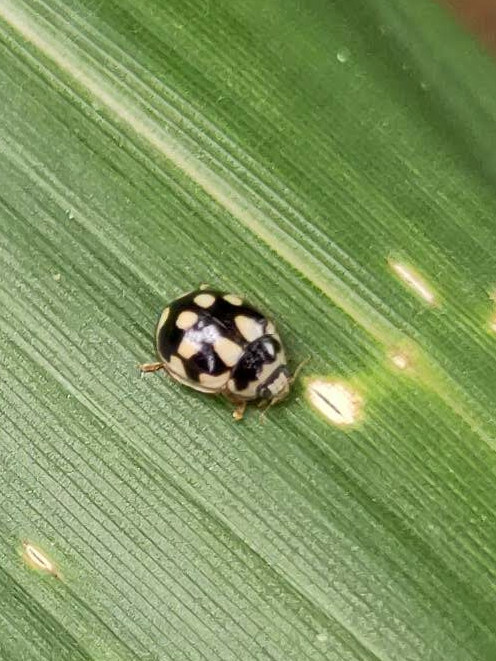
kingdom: Animalia
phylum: Arthropoda
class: Insecta
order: Coleoptera
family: Coccinellidae
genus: Propylaea
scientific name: Propylaea quatuordecimpunctata
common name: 14-spotted ladybird beetle
